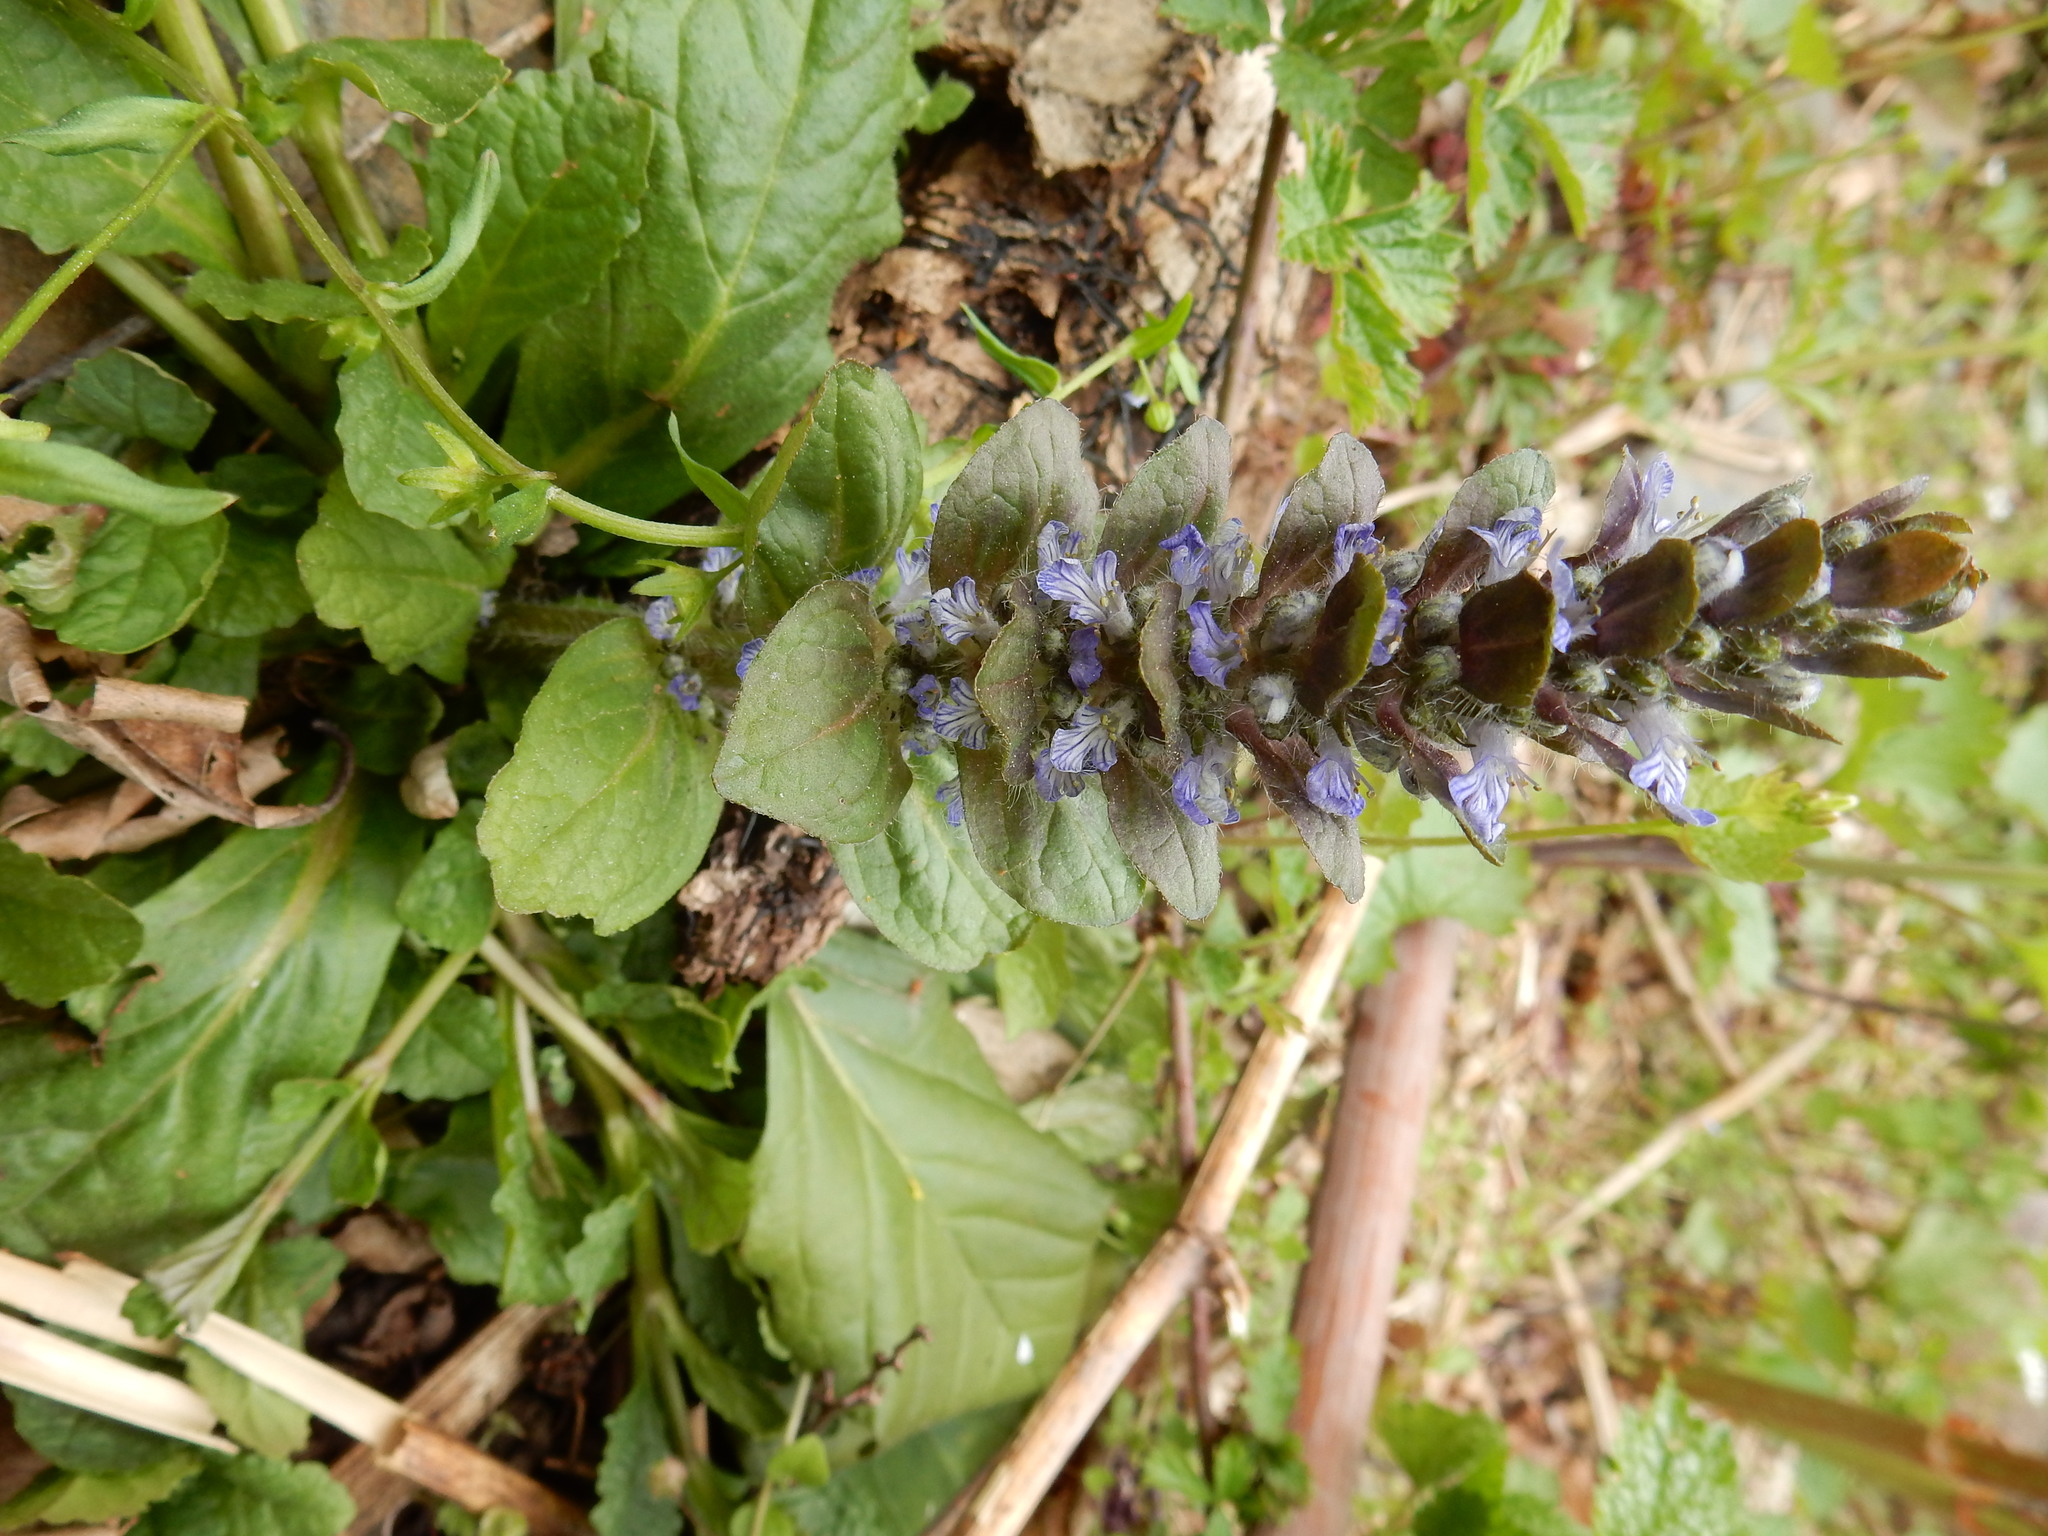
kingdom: Plantae
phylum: Tracheophyta
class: Magnoliopsida
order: Lamiales
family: Lamiaceae
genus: Ajuga
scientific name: Ajuga reptans
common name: Bugle
